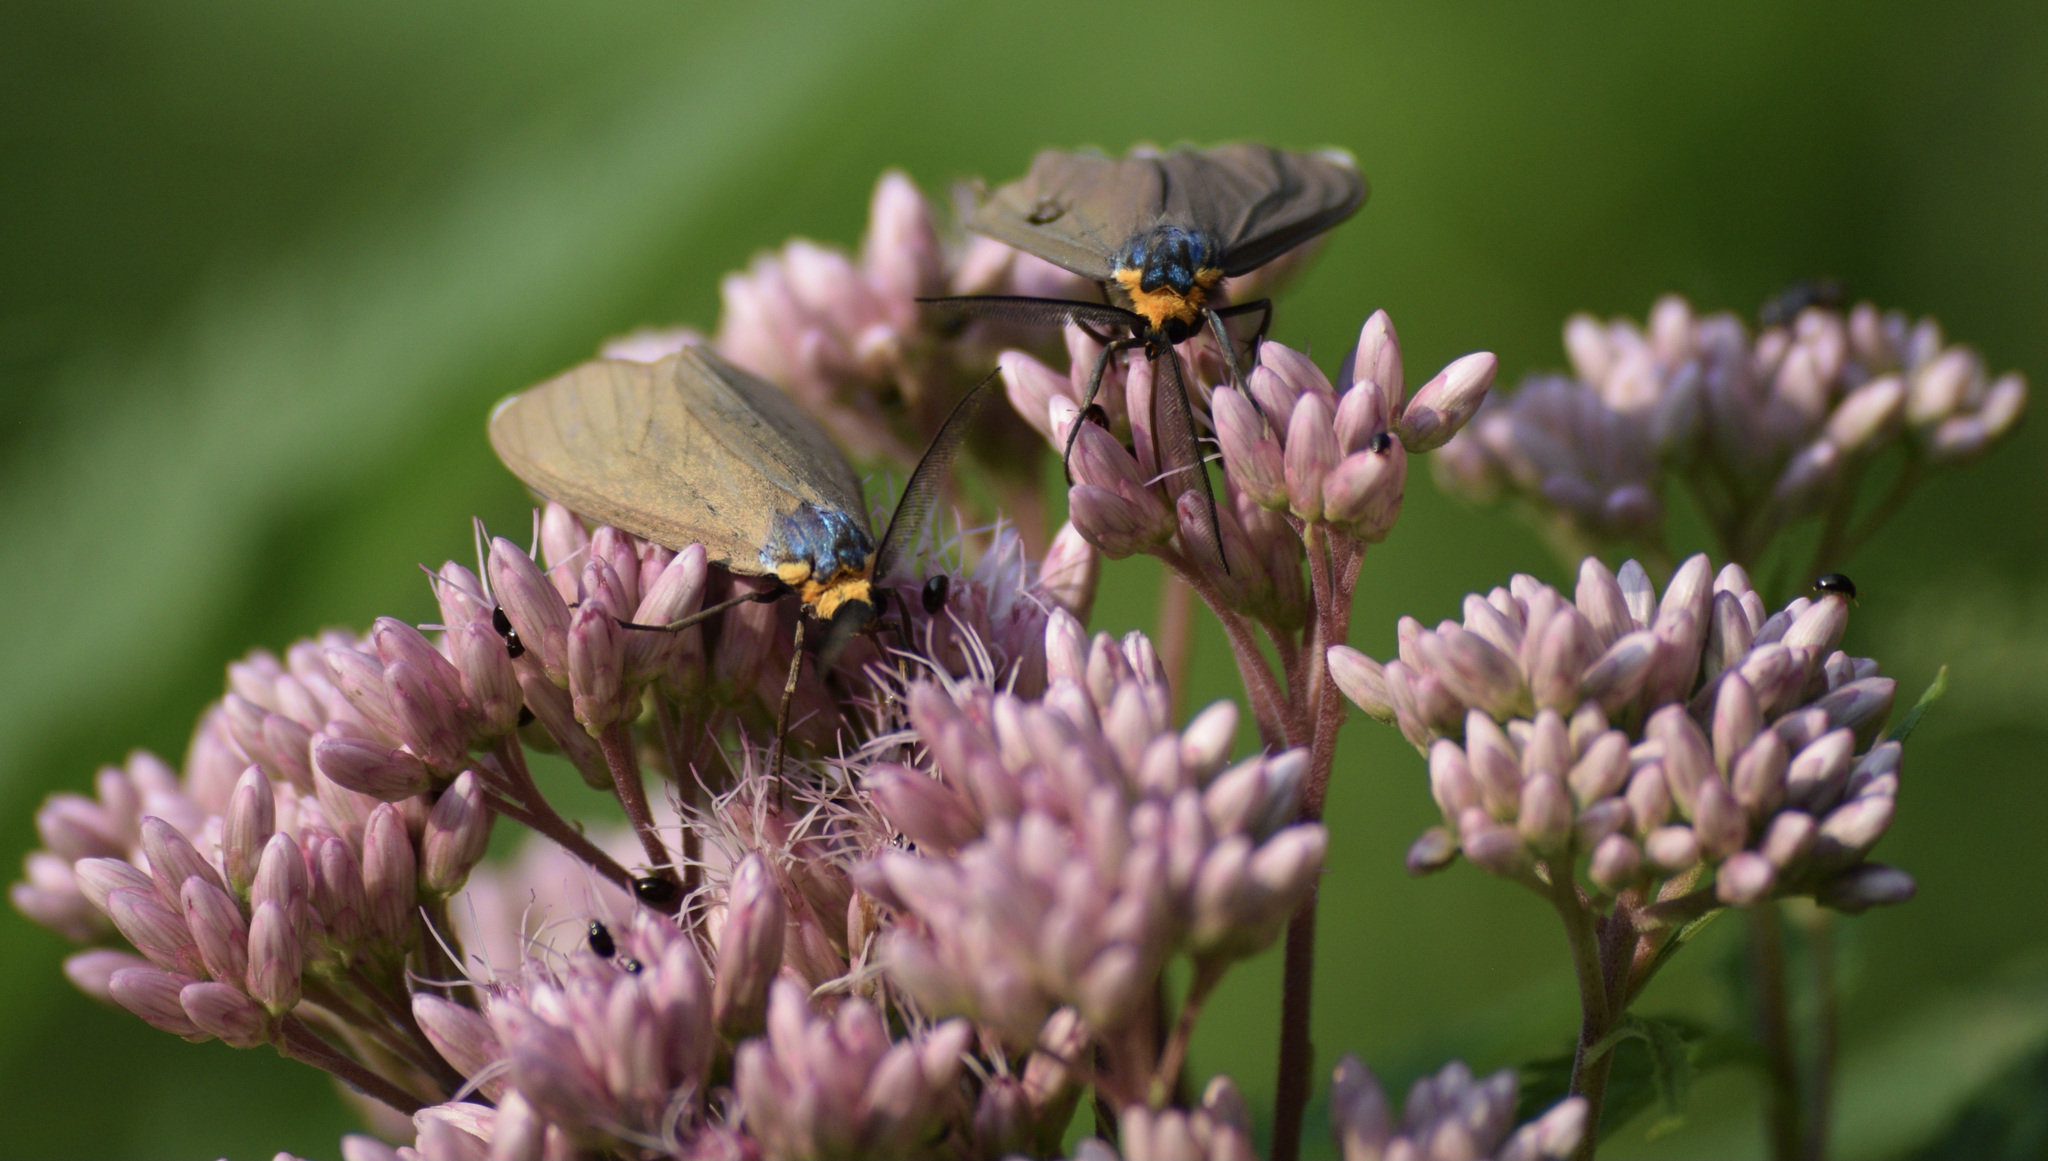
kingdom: Animalia
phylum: Arthropoda
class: Insecta
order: Lepidoptera
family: Erebidae
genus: Ctenucha
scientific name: Ctenucha virginica
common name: Virginia ctenucha moth
